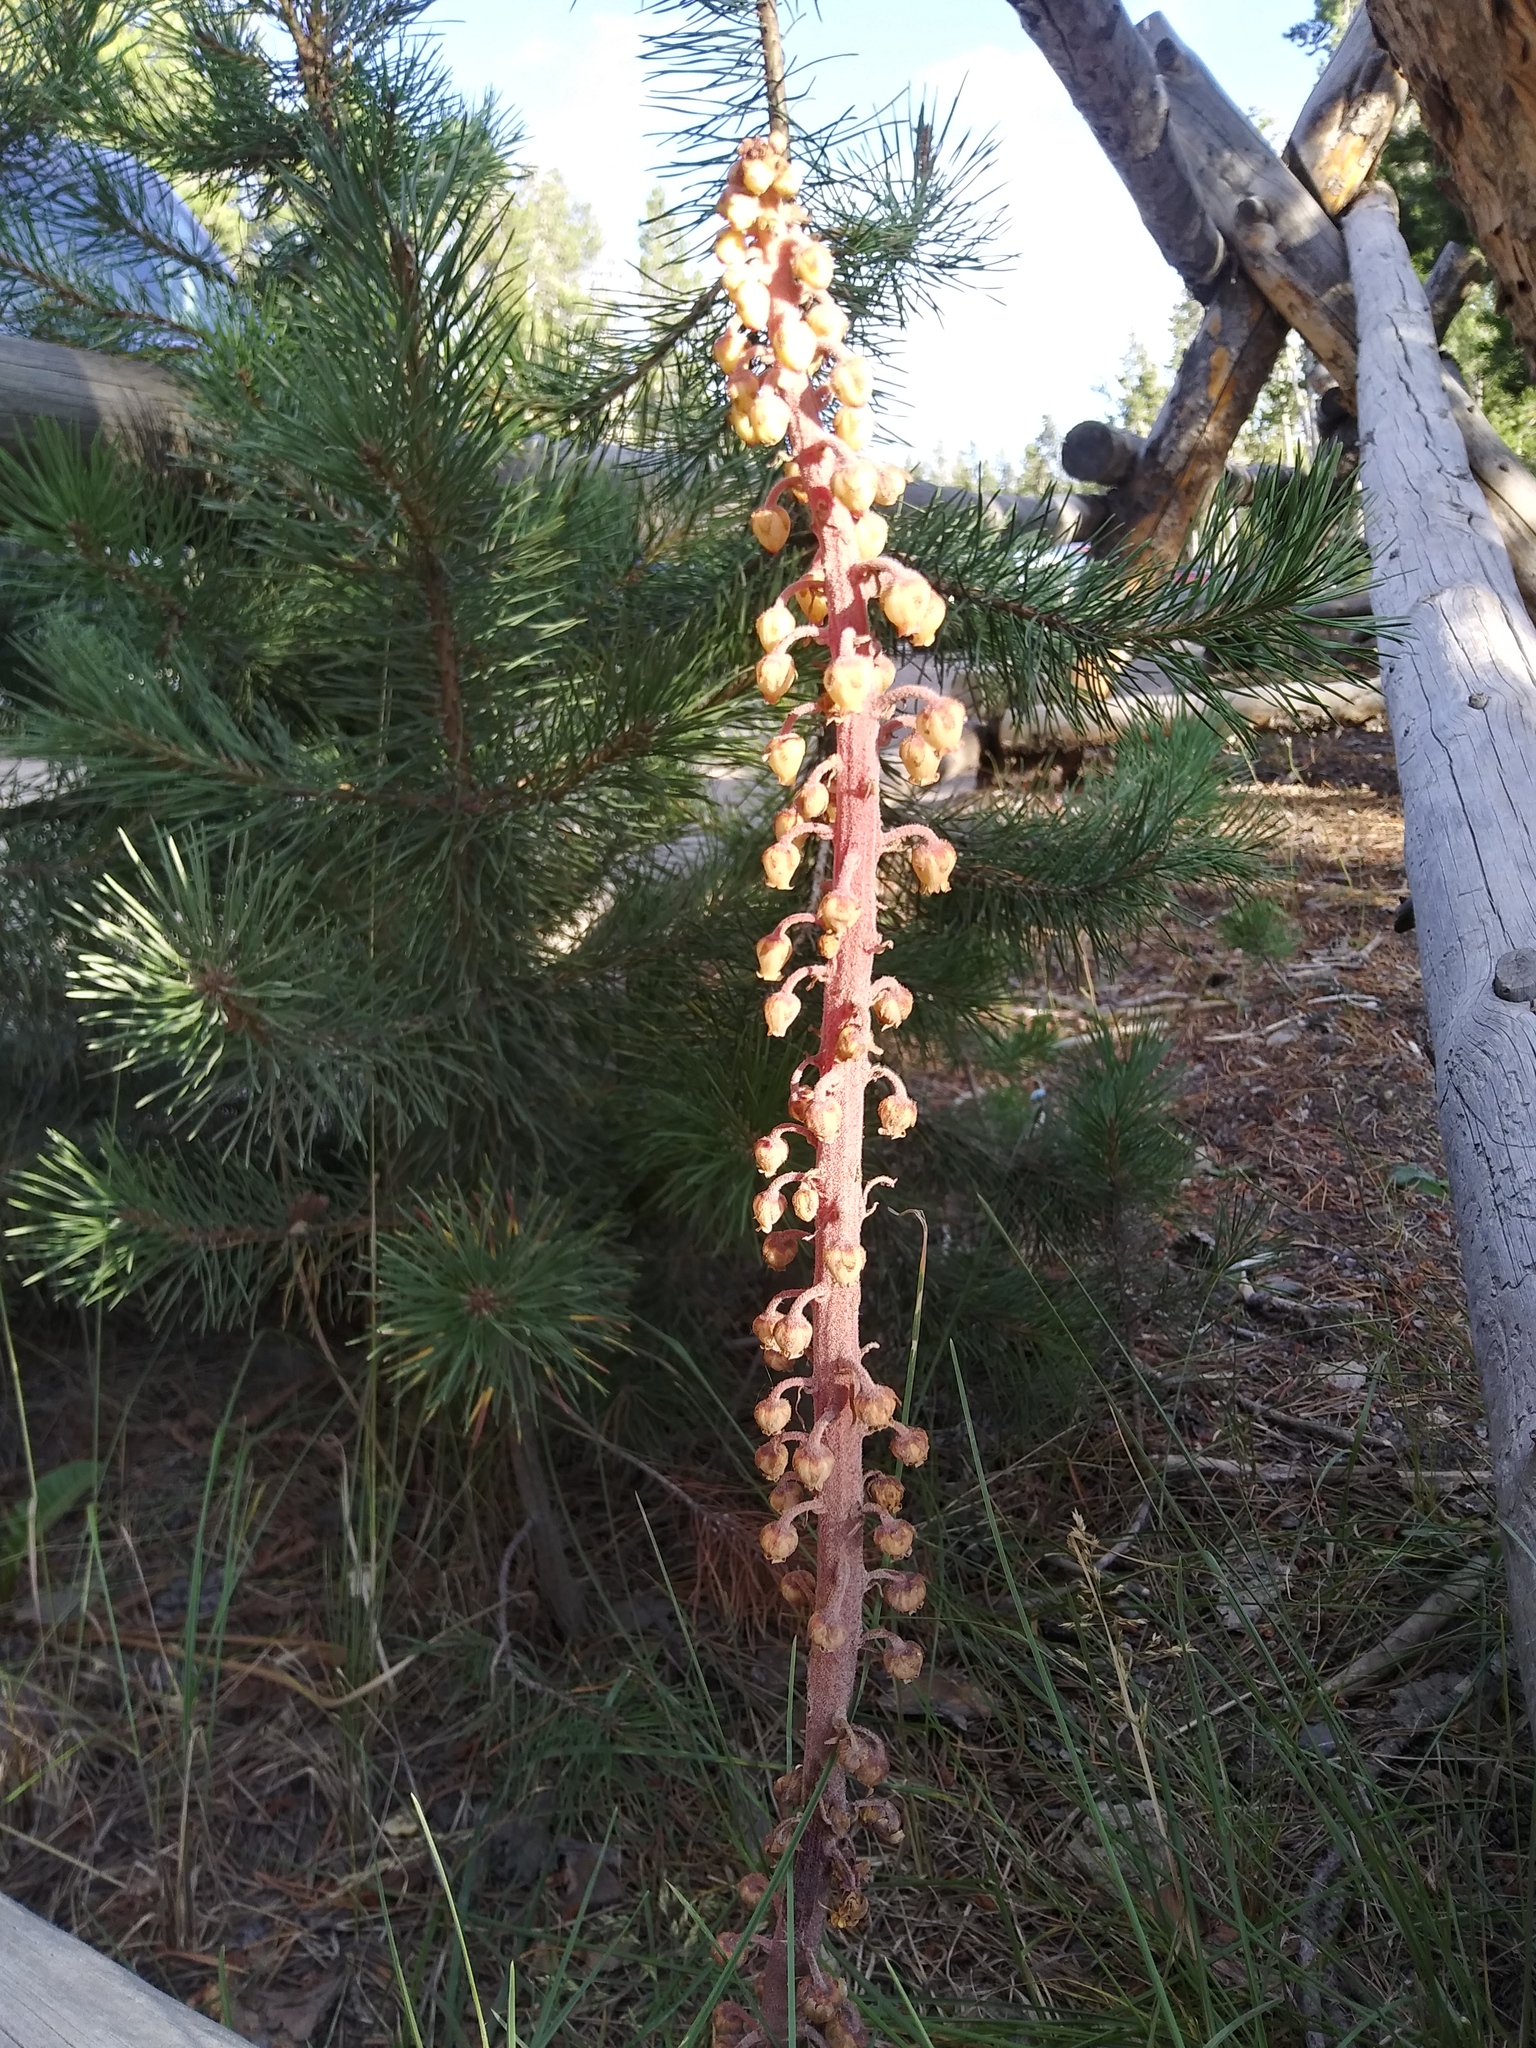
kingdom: Plantae
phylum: Tracheophyta
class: Magnoliopsida
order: Ericales
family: Ericaceae
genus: Pterospora
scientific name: Pterospora andromedea
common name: Giant bird's-nest
